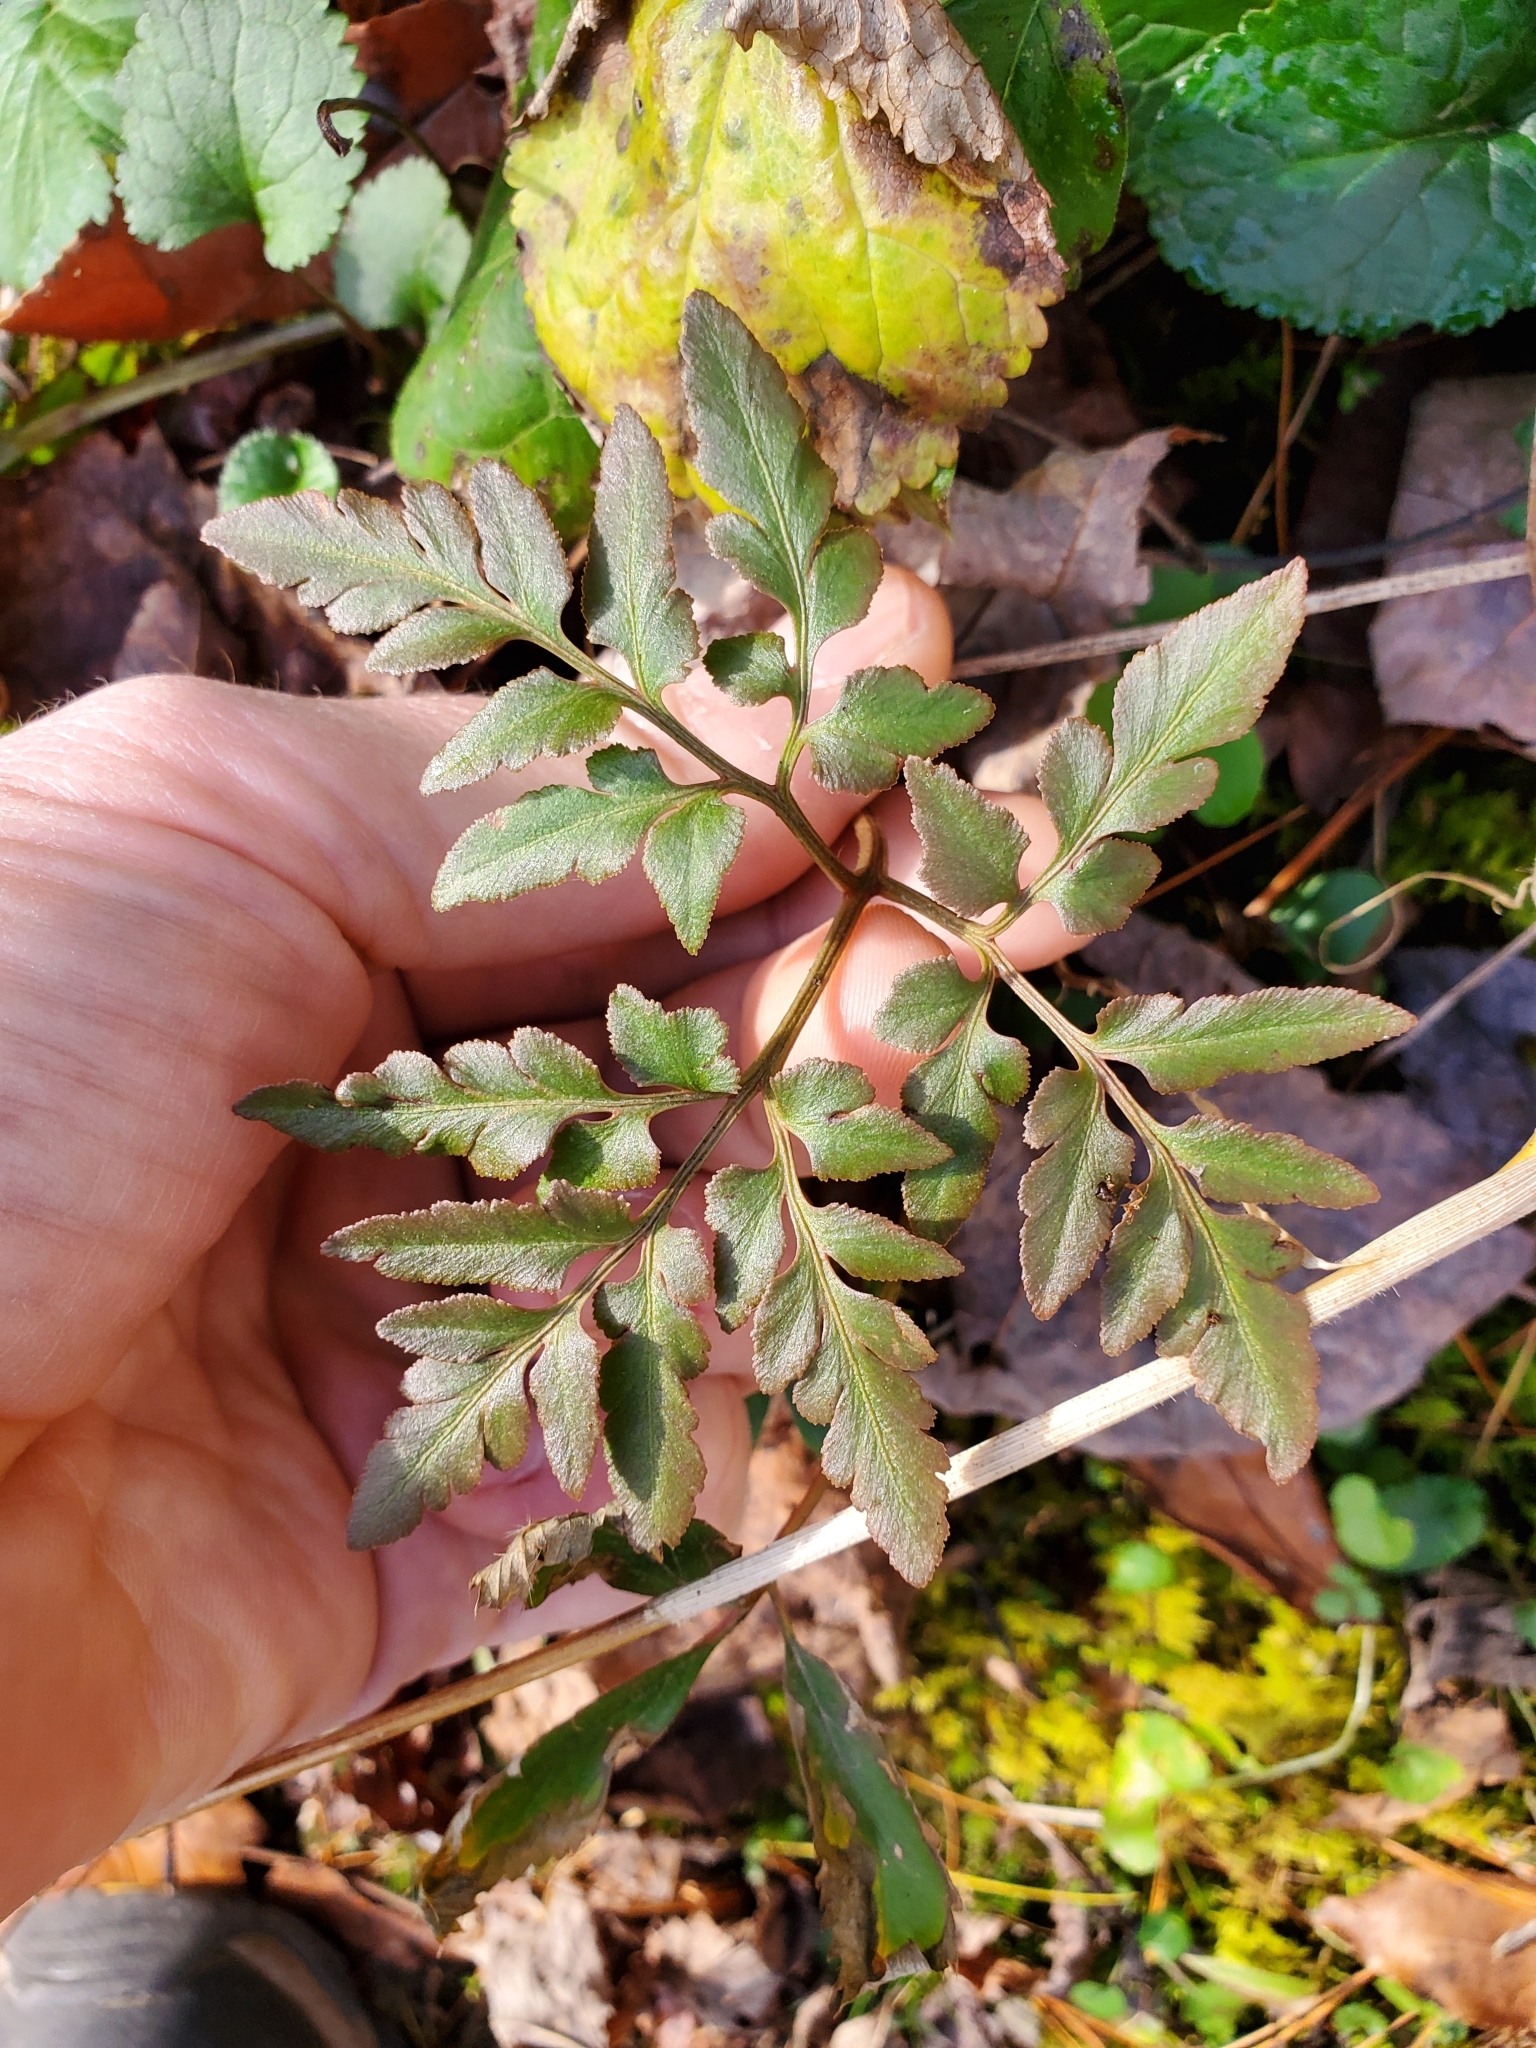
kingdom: Plantae
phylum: Tracheophyta
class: Polypodiopsida
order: Ophioglossales
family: Ophioglossaceae
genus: Sceptridium
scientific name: Sceptridium dissectum
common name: Cut-leaved grapefern
